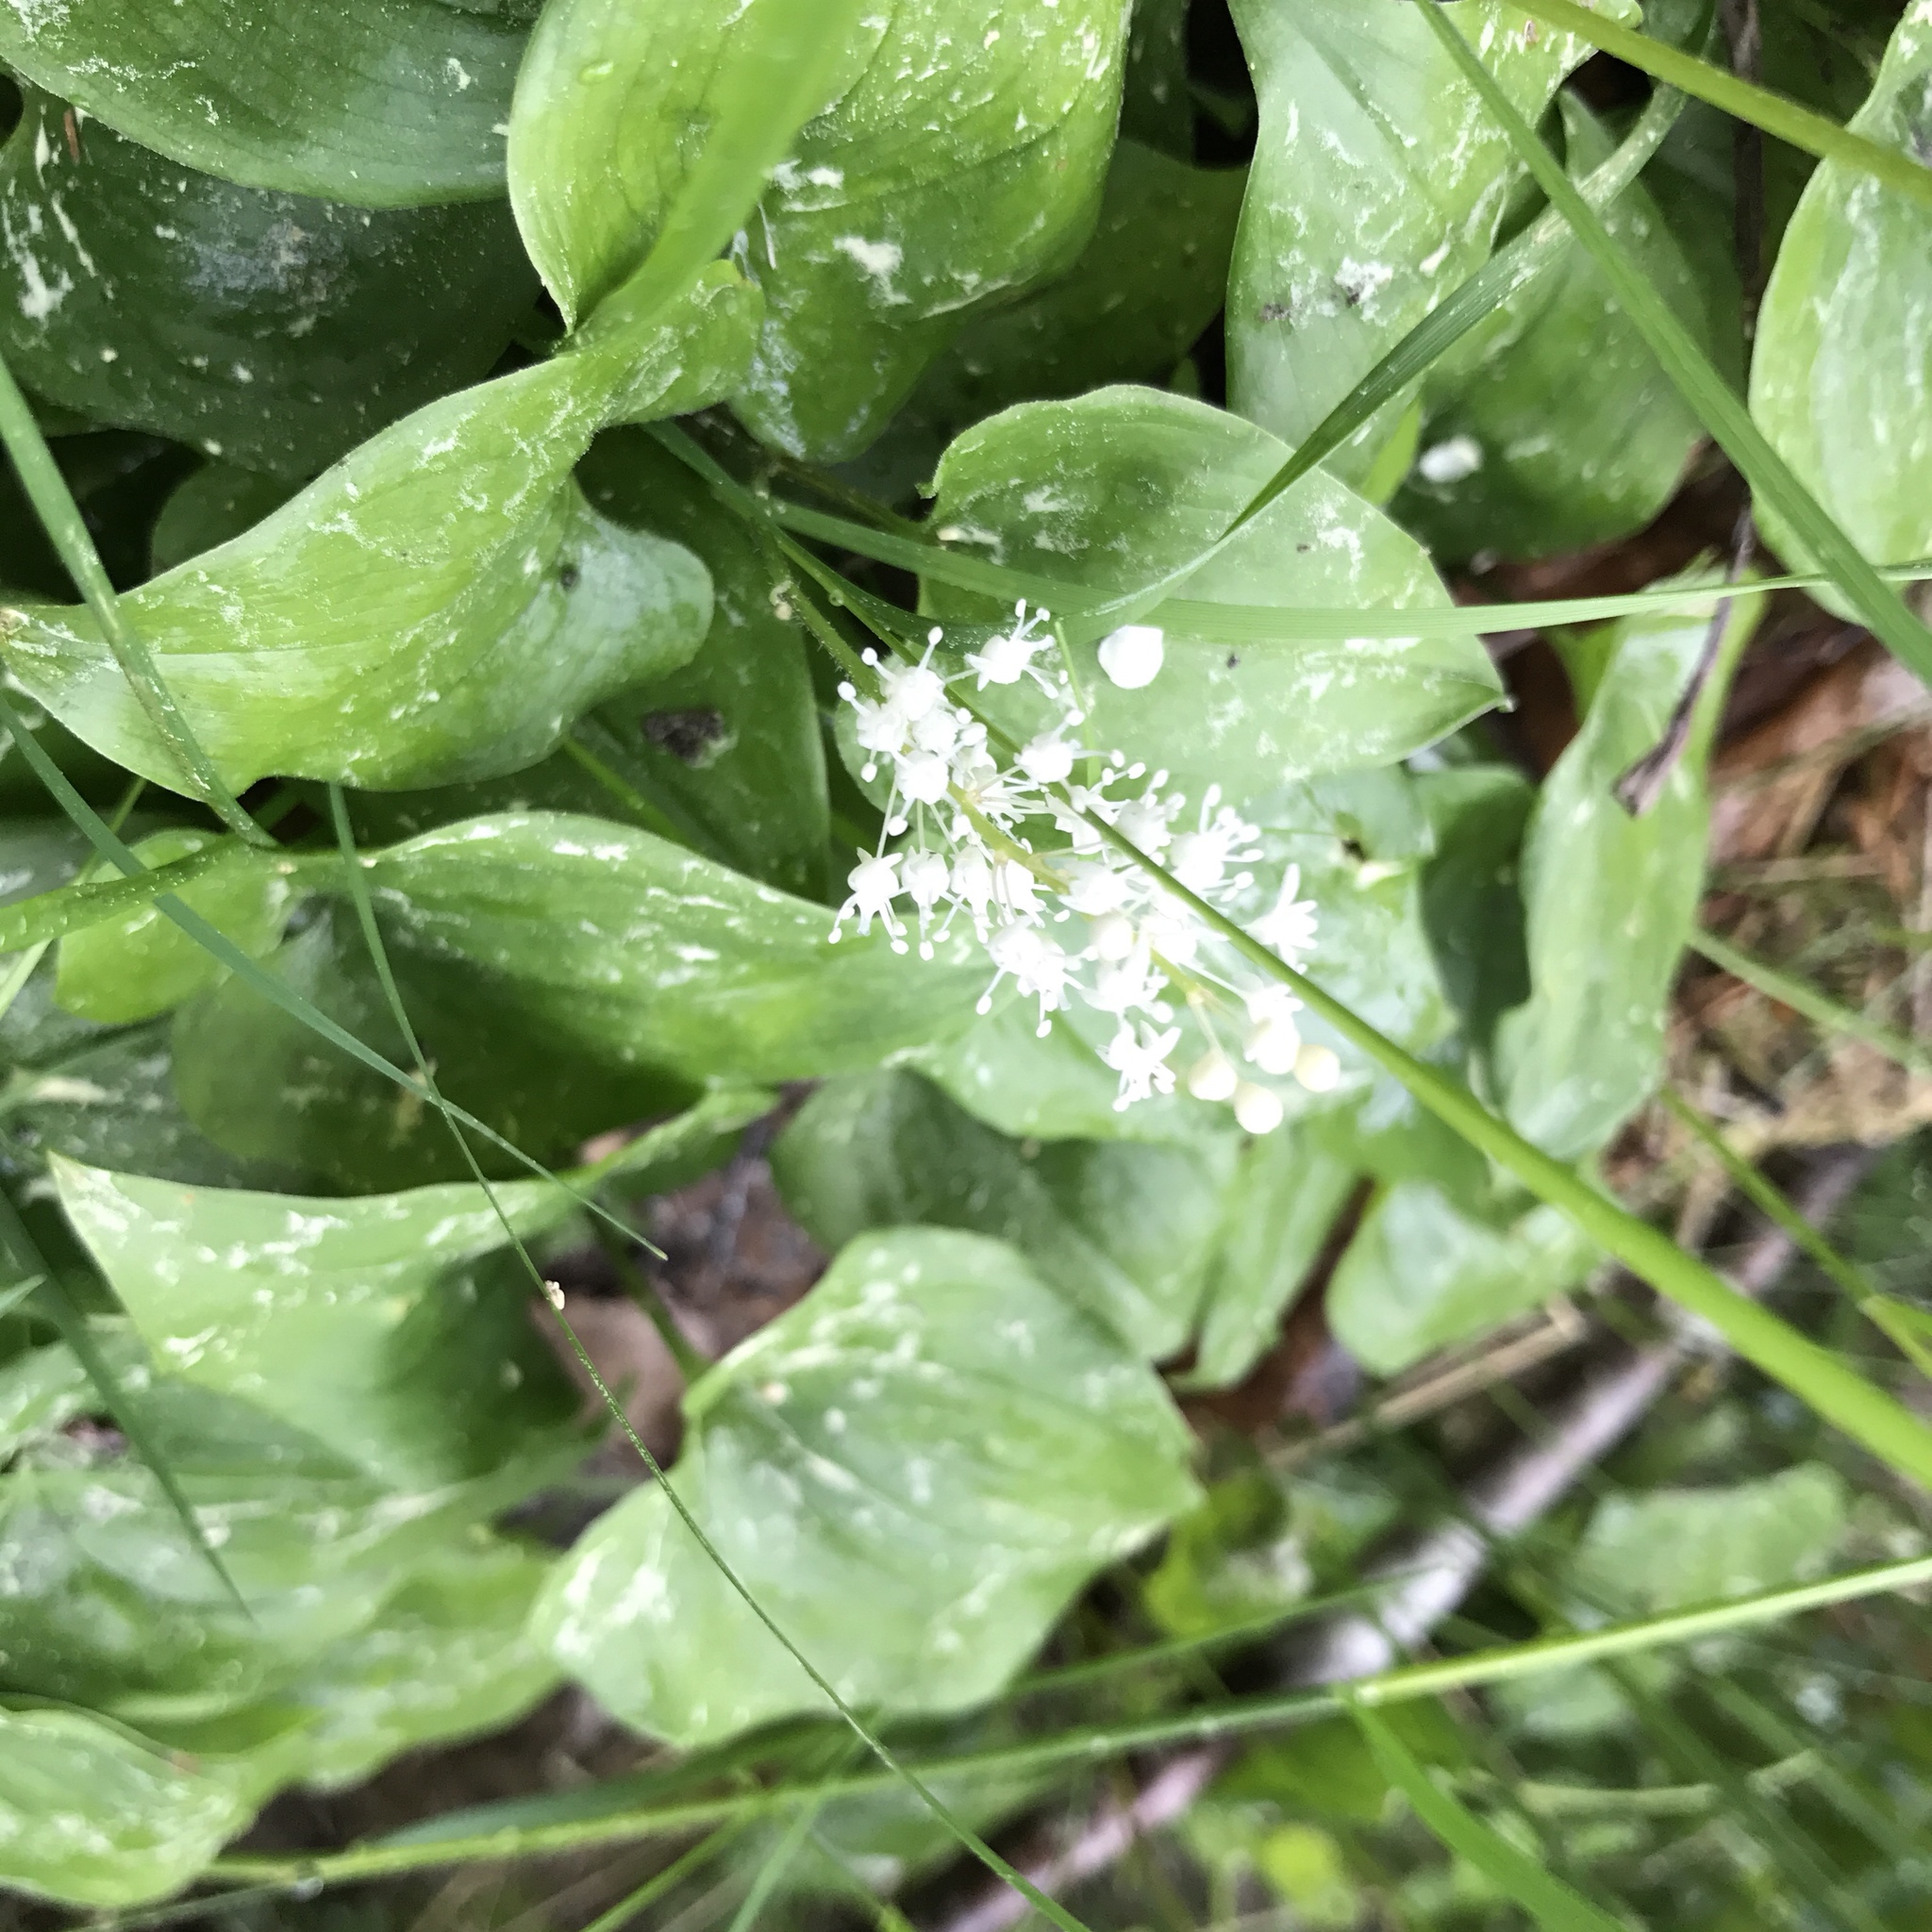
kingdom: Plantae
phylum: Tracheophyta
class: Liliopsida
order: Asparagales
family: Asparagaceae
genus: Maianthemum
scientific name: Maianthemum bifolium
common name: May lily
